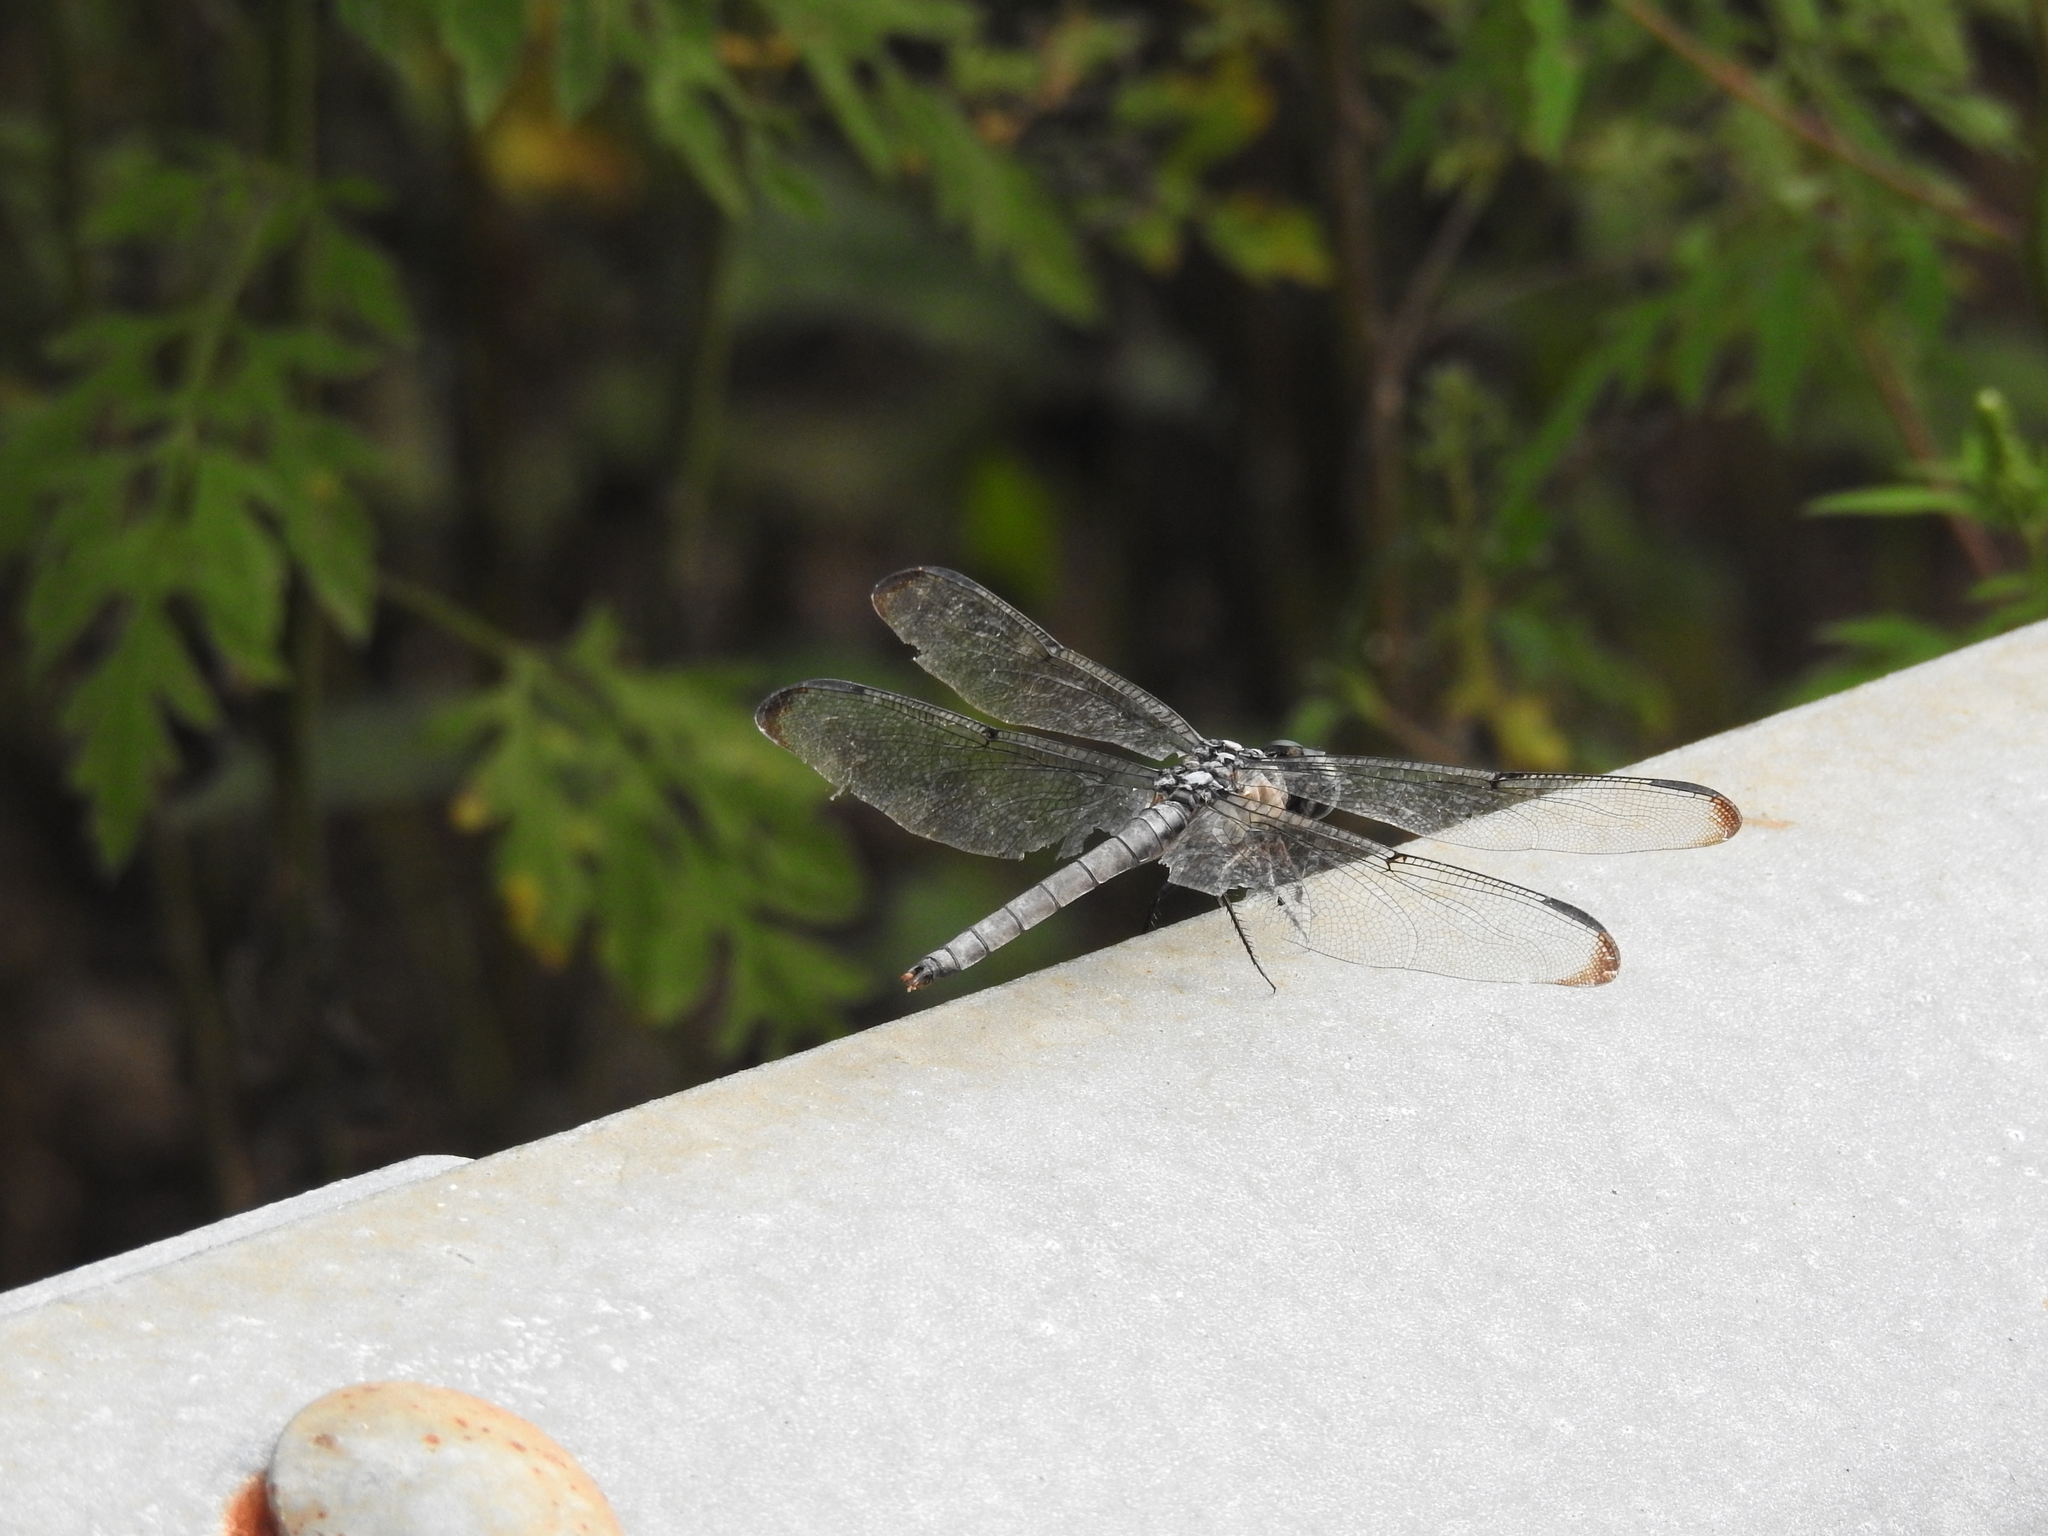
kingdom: Animalia
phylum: Arthropoda
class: Insecta
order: Odonata
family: Libellulidae
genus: Libellula
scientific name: Libellula vibrans
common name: Great blue skimmer
